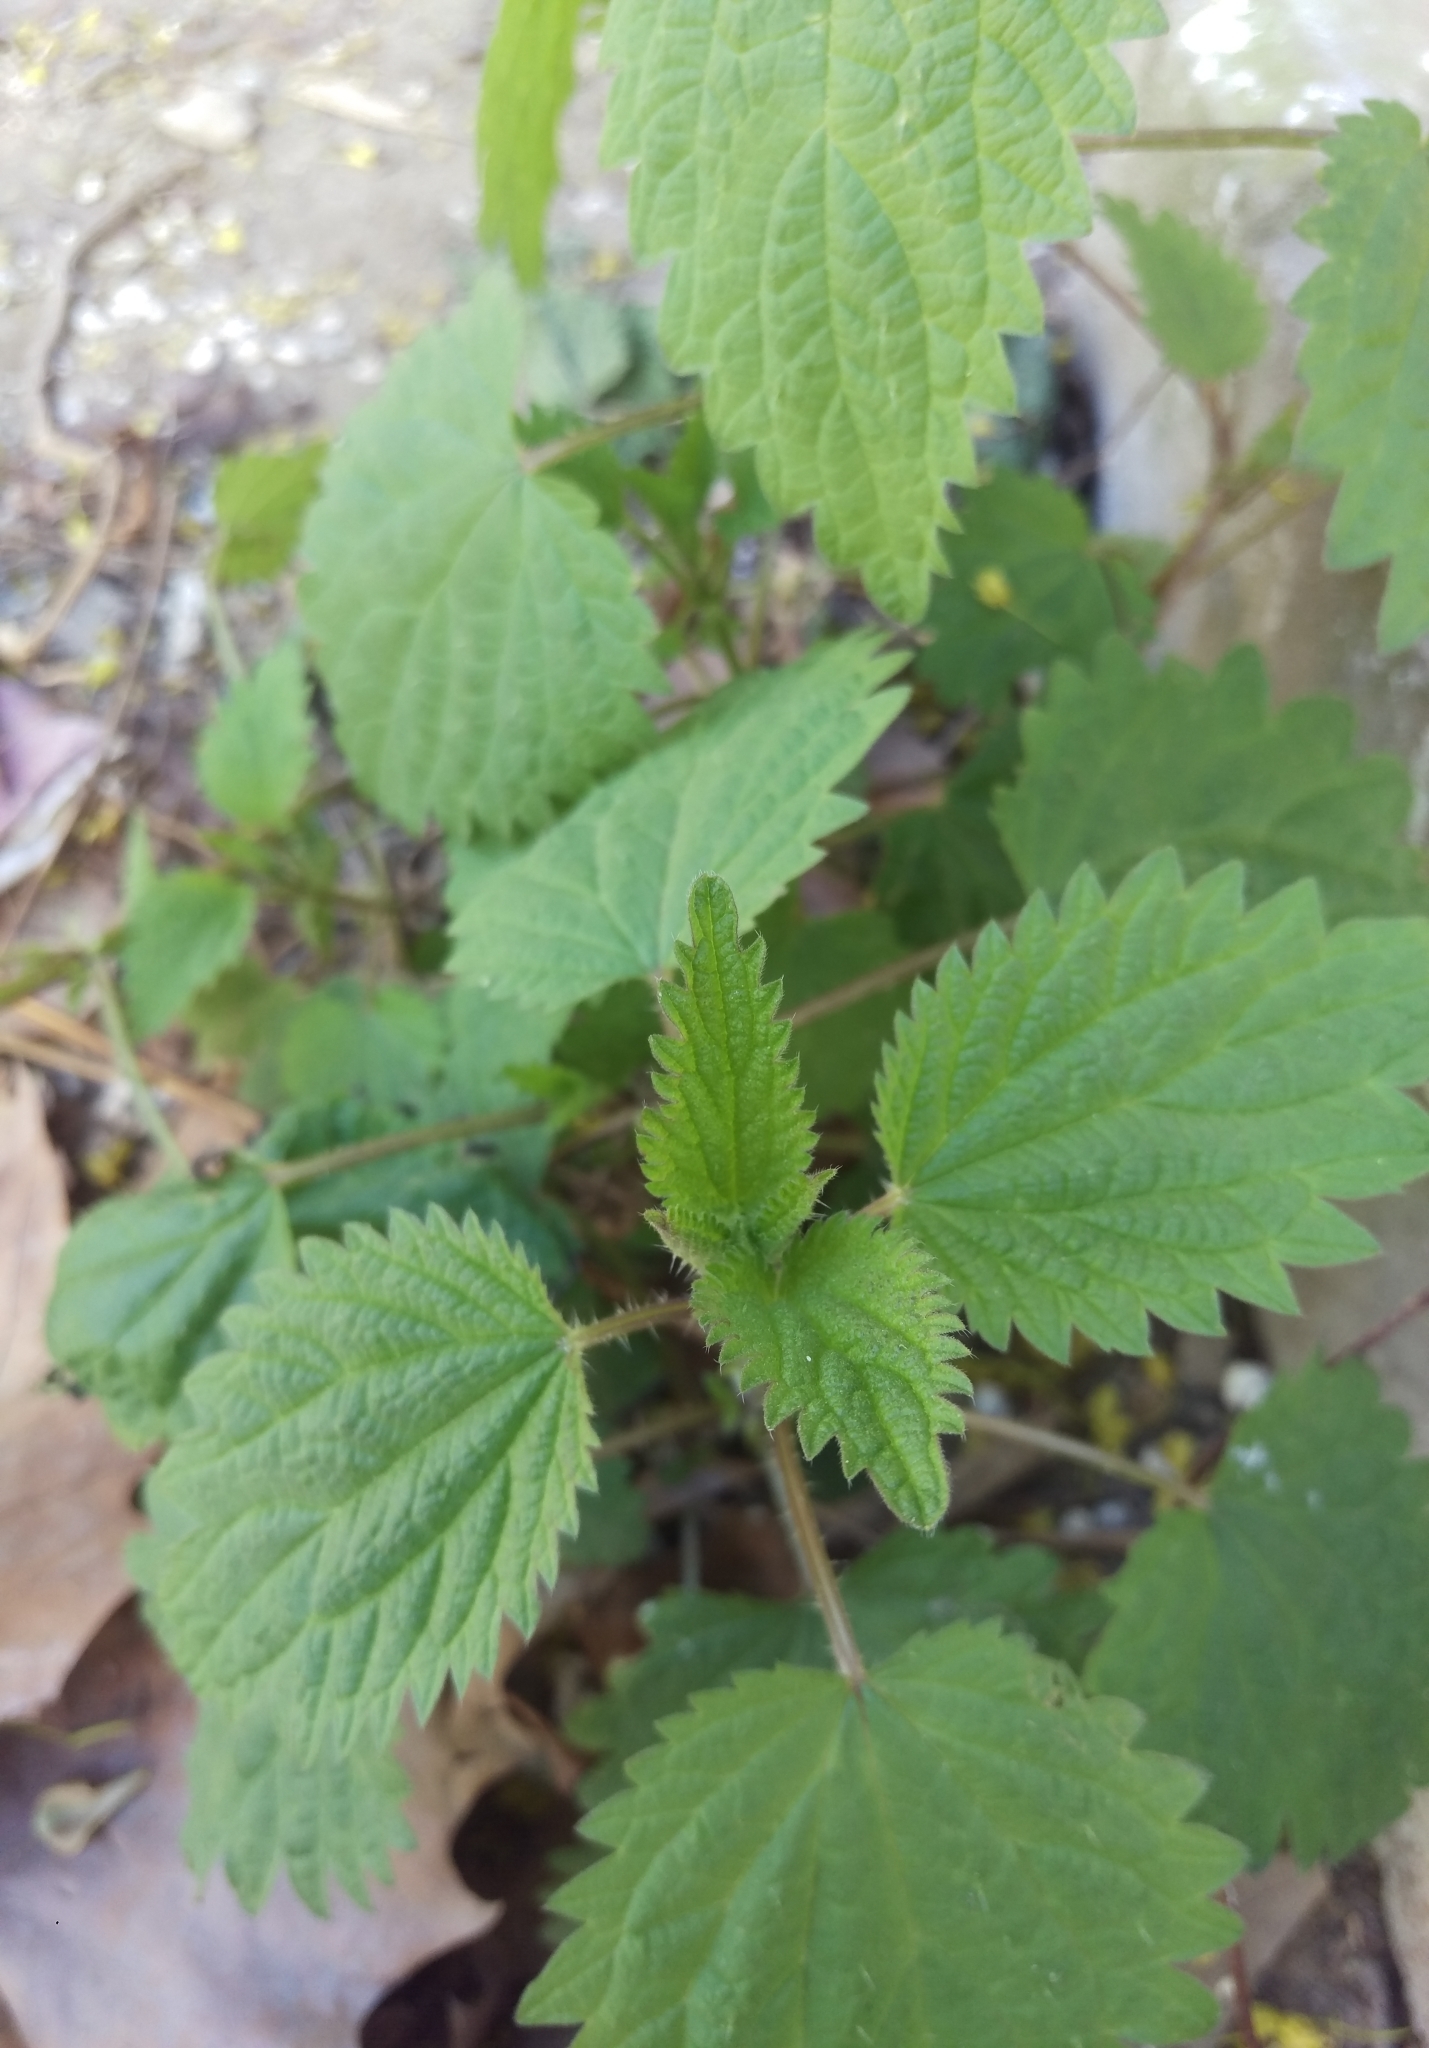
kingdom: Plantae
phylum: Tracheophyta
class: Magnoliopsida
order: Rosales
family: Urticaceae
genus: Urtica
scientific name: Urtica dioica
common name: Common nettle
